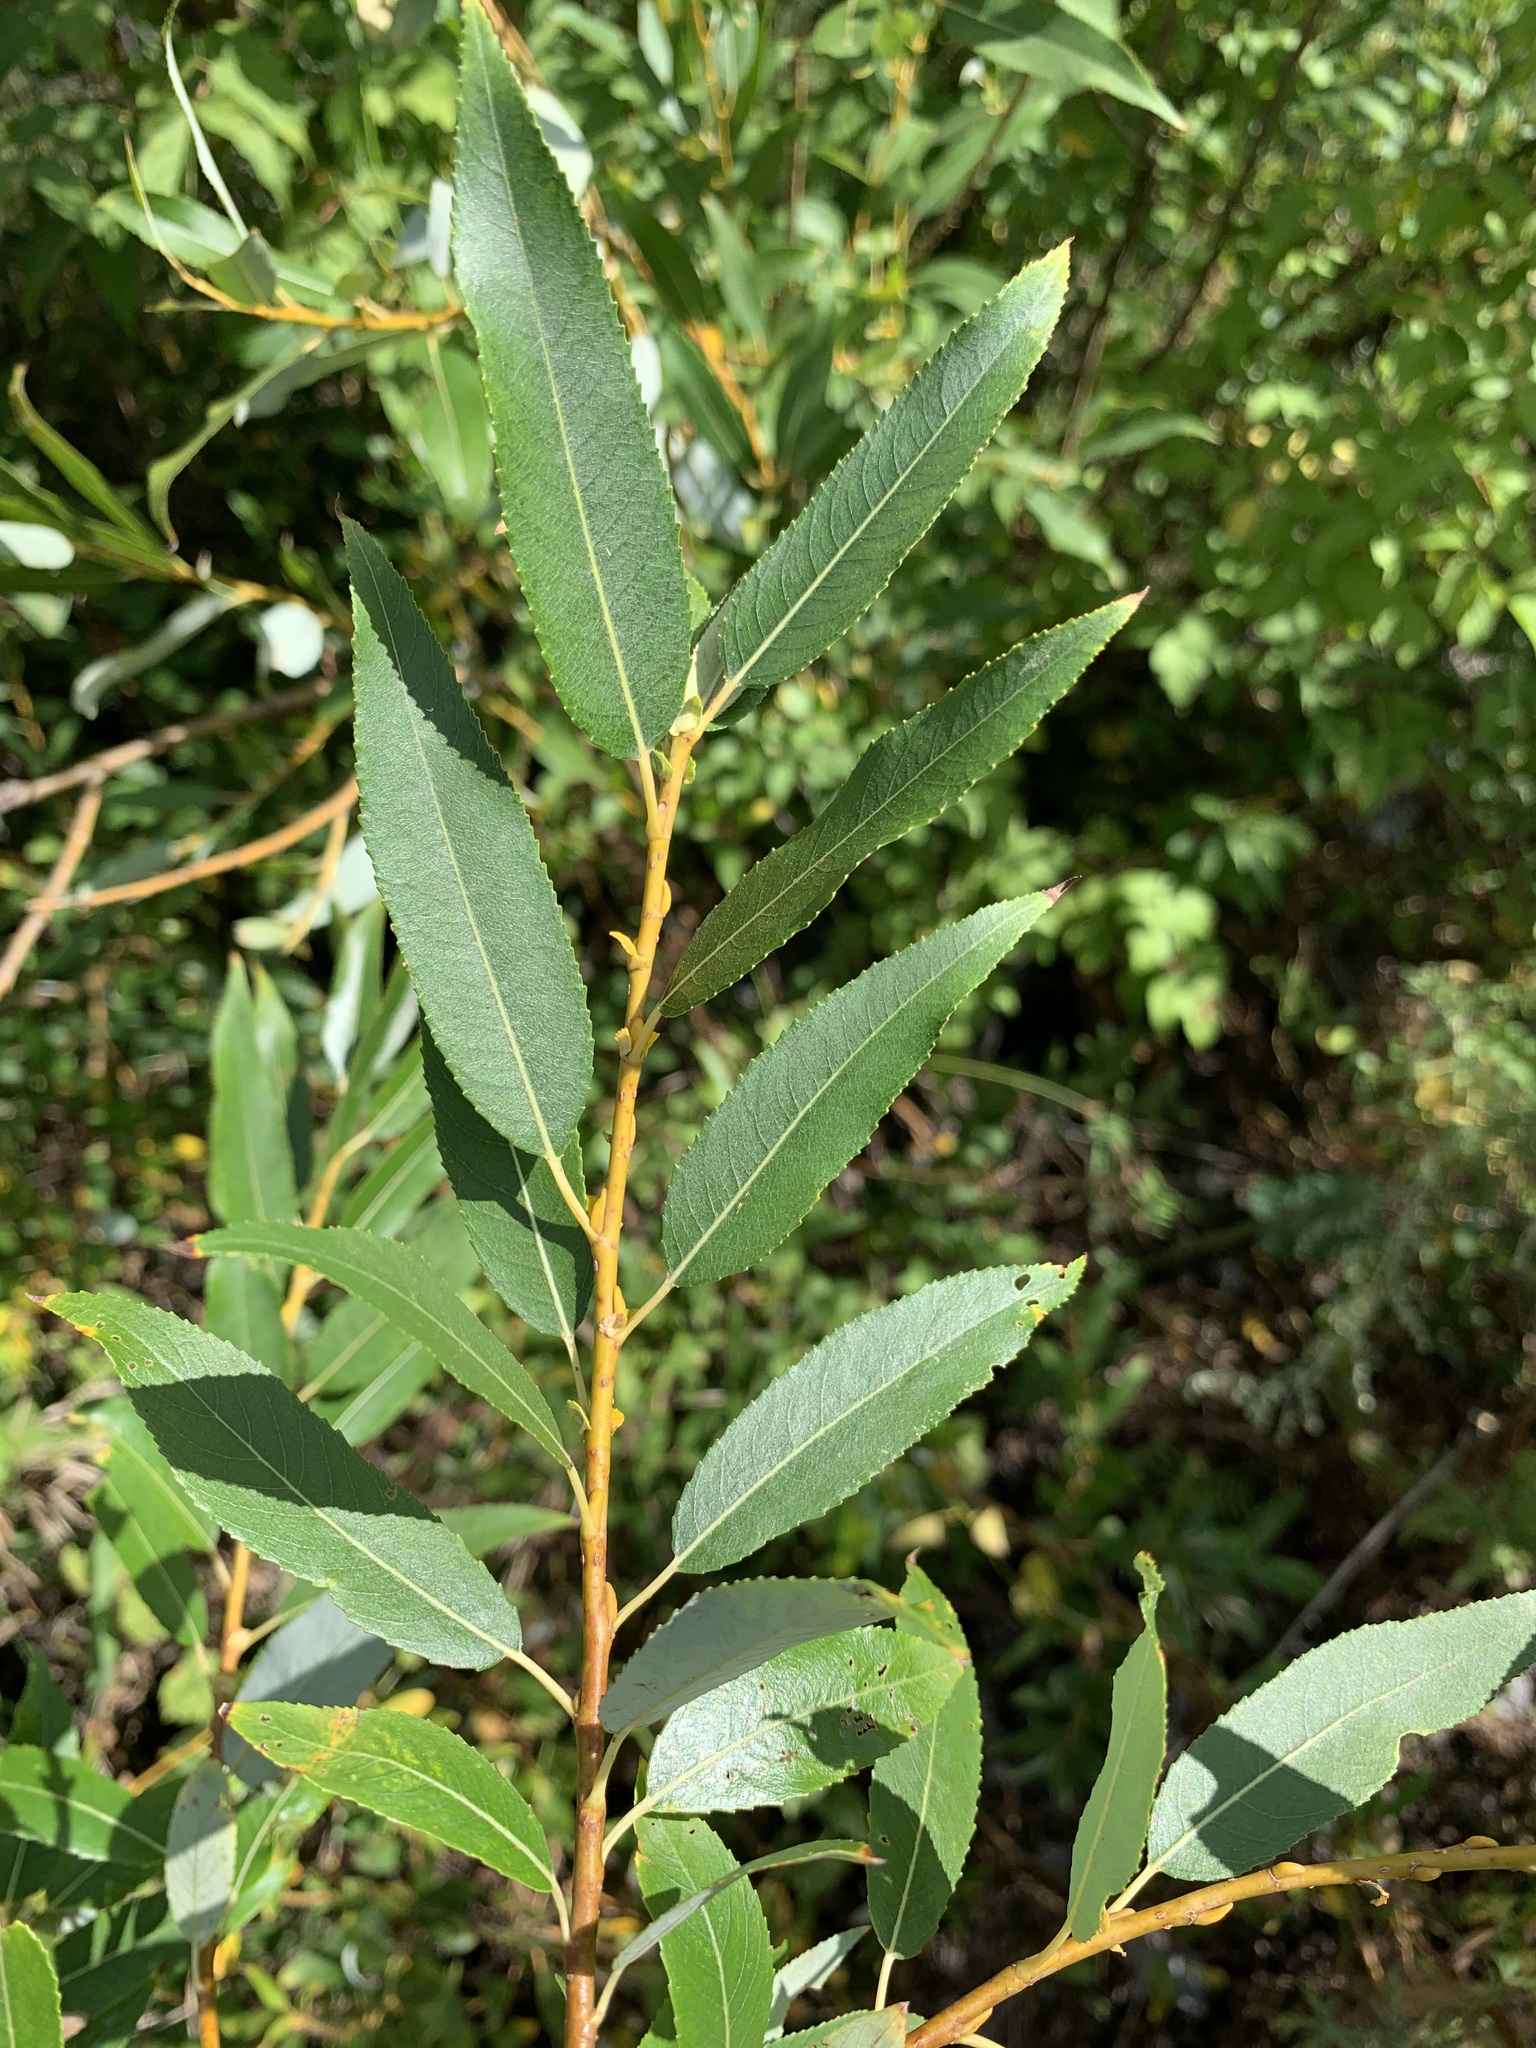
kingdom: Plantae
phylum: Tracheophyta
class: Magnoliopsida
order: Malpighiales
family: Salicaceae
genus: Salix
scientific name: Salix triandra
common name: Almond willow
